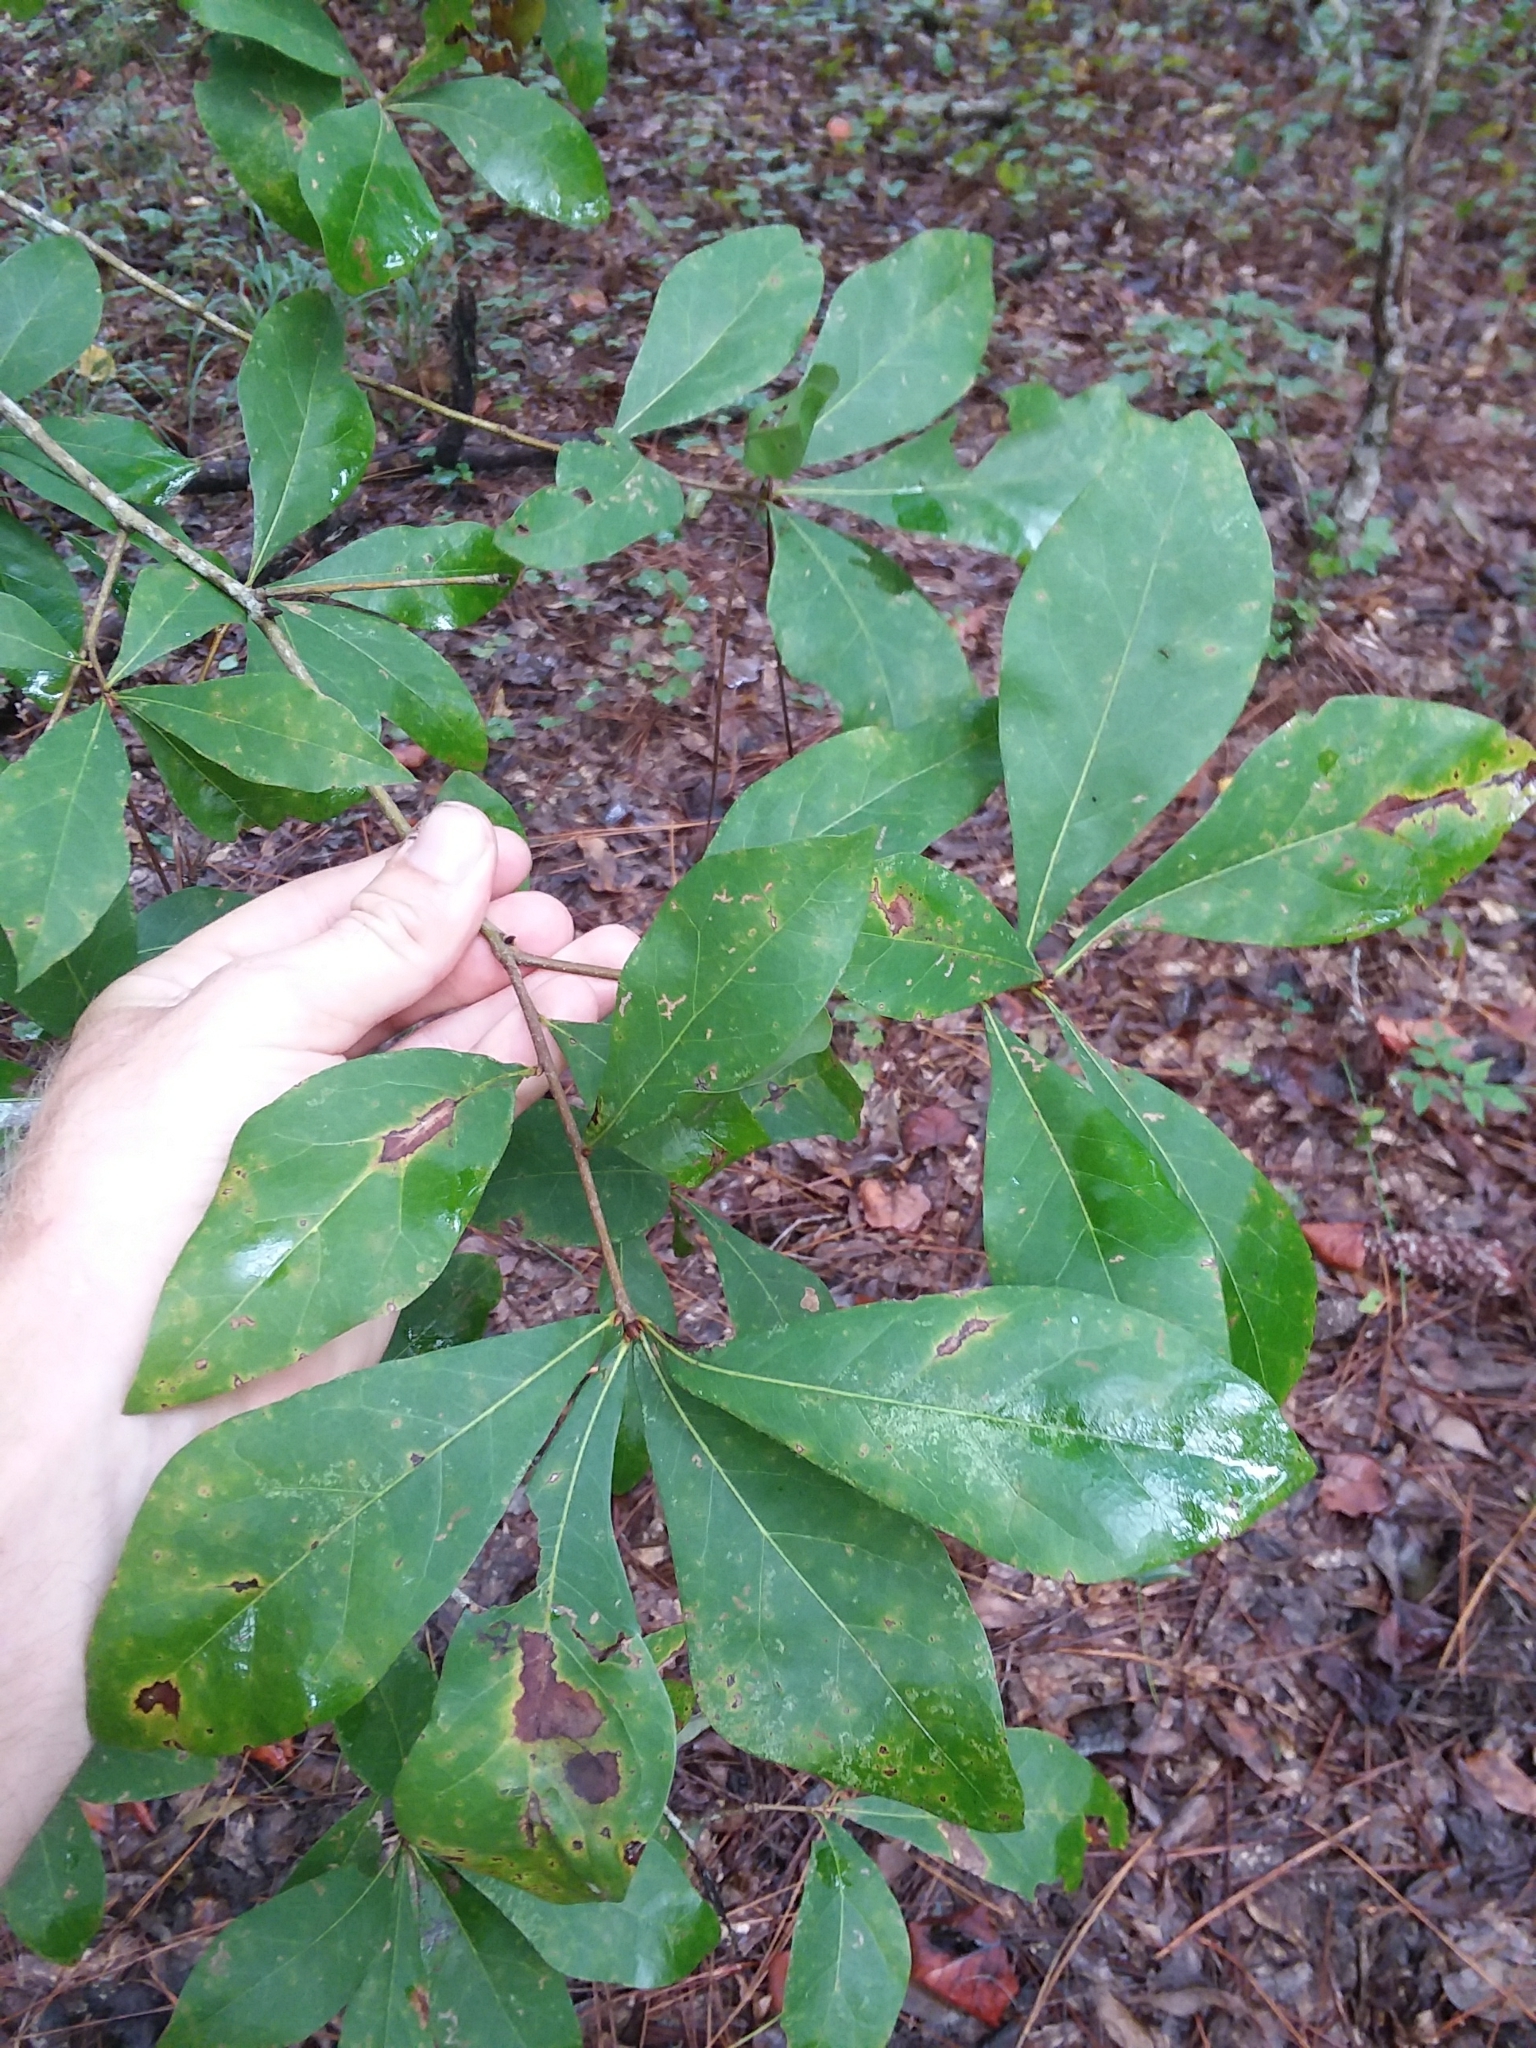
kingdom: Plantae
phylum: Tracheophyta
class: Magnoliopsida
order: Fagales
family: Fagaceae
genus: Quercus
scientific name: Quercus laurifolia
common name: Swamp laurel oak
